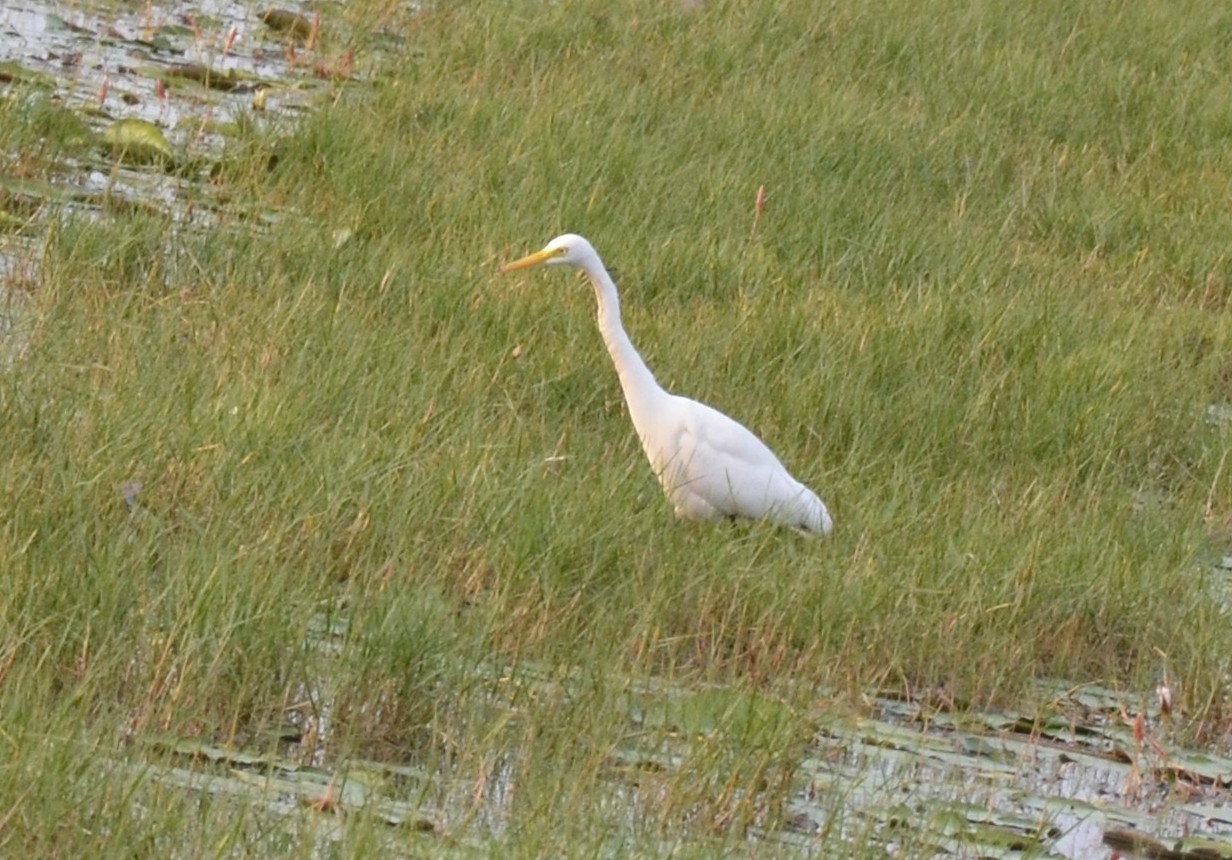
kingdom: Animalia
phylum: Chordata
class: Aves
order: Pelecaniformes
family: Ardeidae
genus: Egretta
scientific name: Egretta intermedia
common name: Intermediate egret
